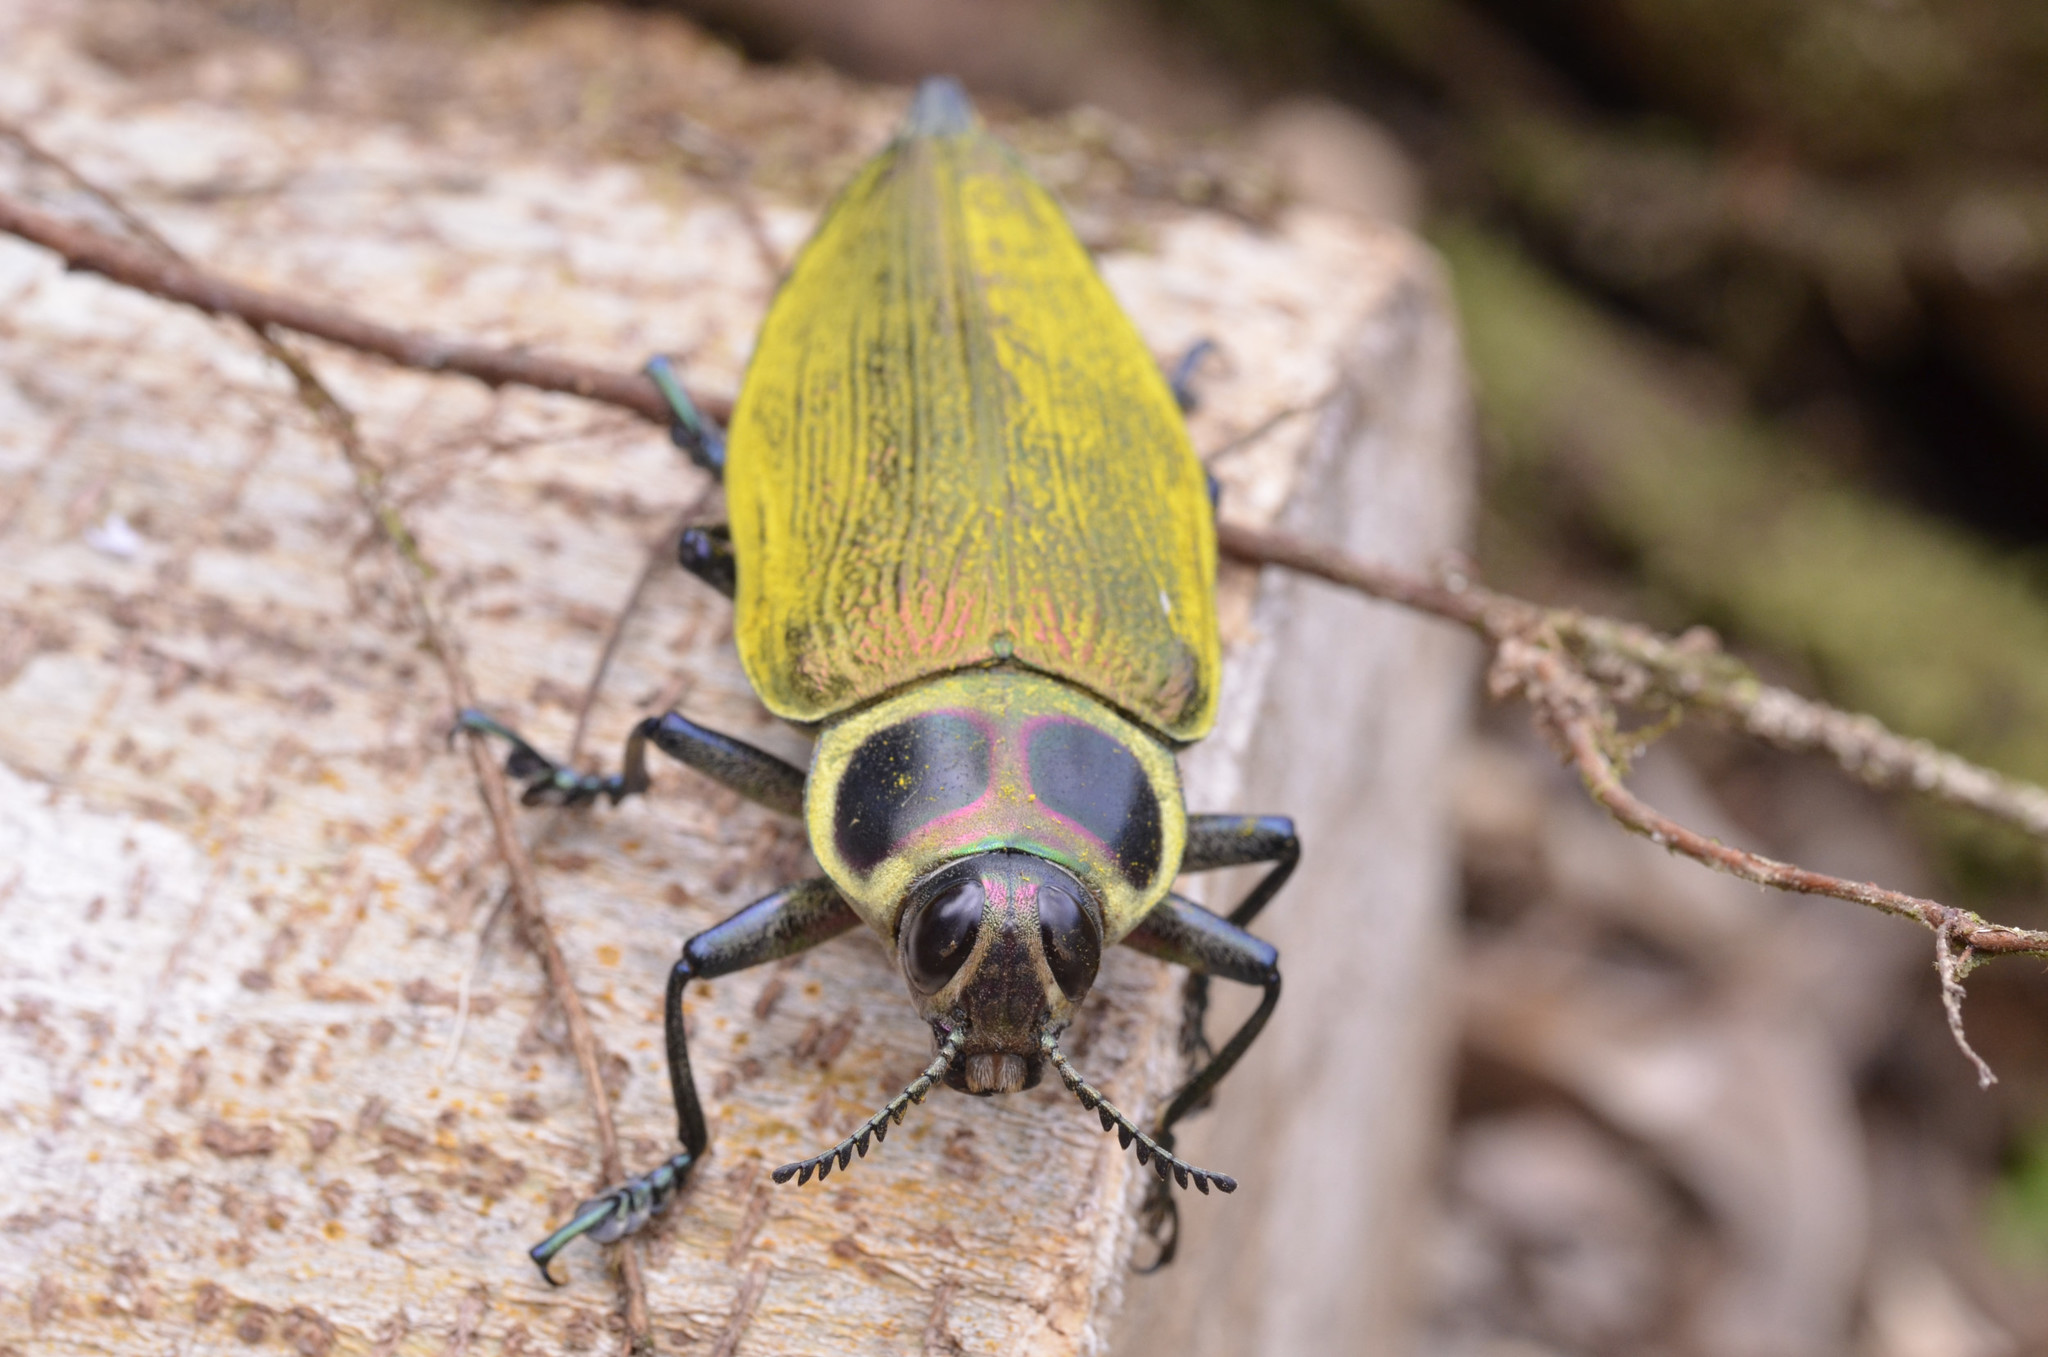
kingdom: Animalia
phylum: Arthropoda
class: Insecta
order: Coleoptera
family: Buprestidae
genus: Euchroma
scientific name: Euchroma giganteum
